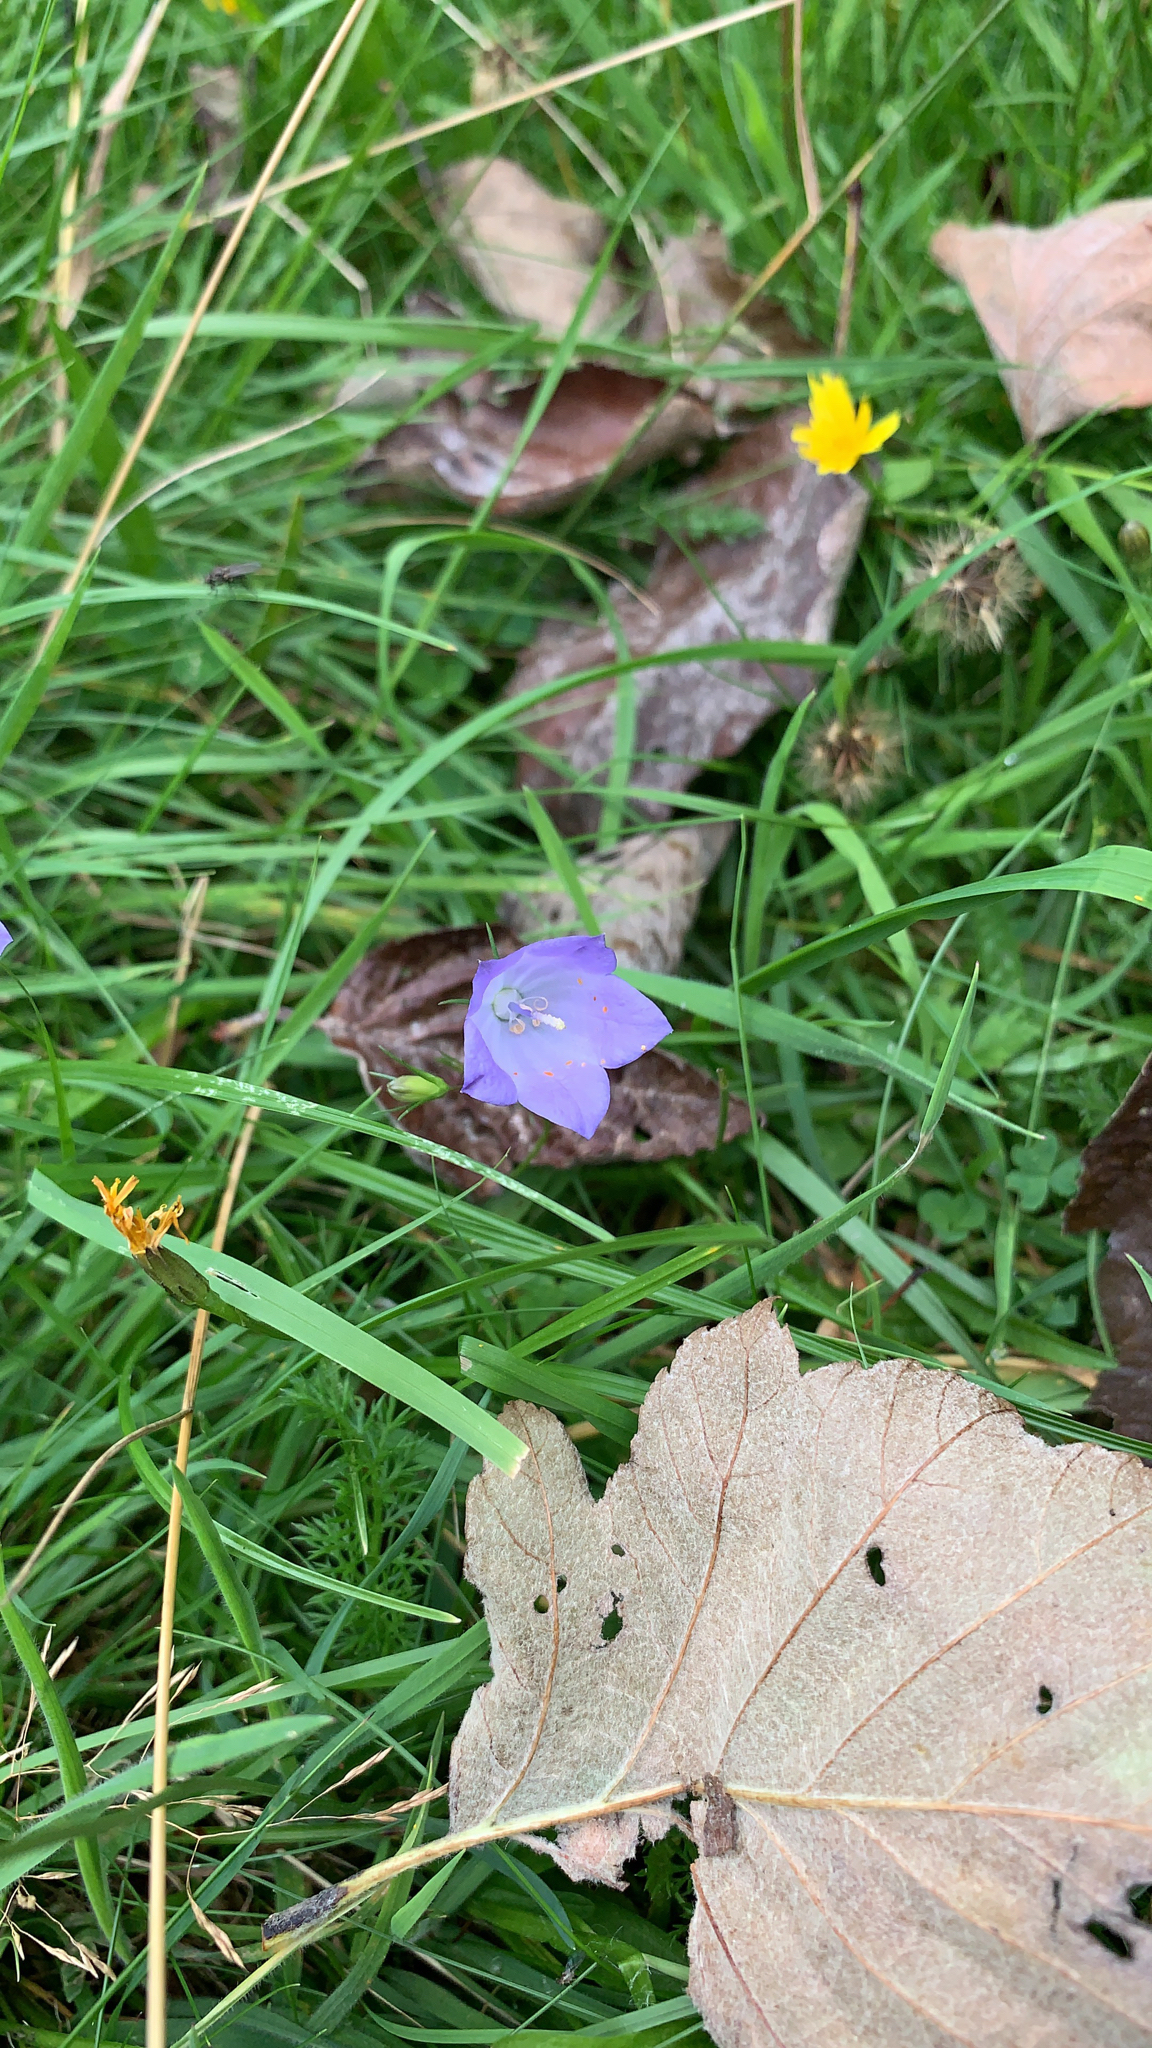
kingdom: Plantae
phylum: Tracheophyta
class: Magnoliopsida
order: Asterales
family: Campanulaceae
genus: Campanula
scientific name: Campanula rotundifolia
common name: Harebell
